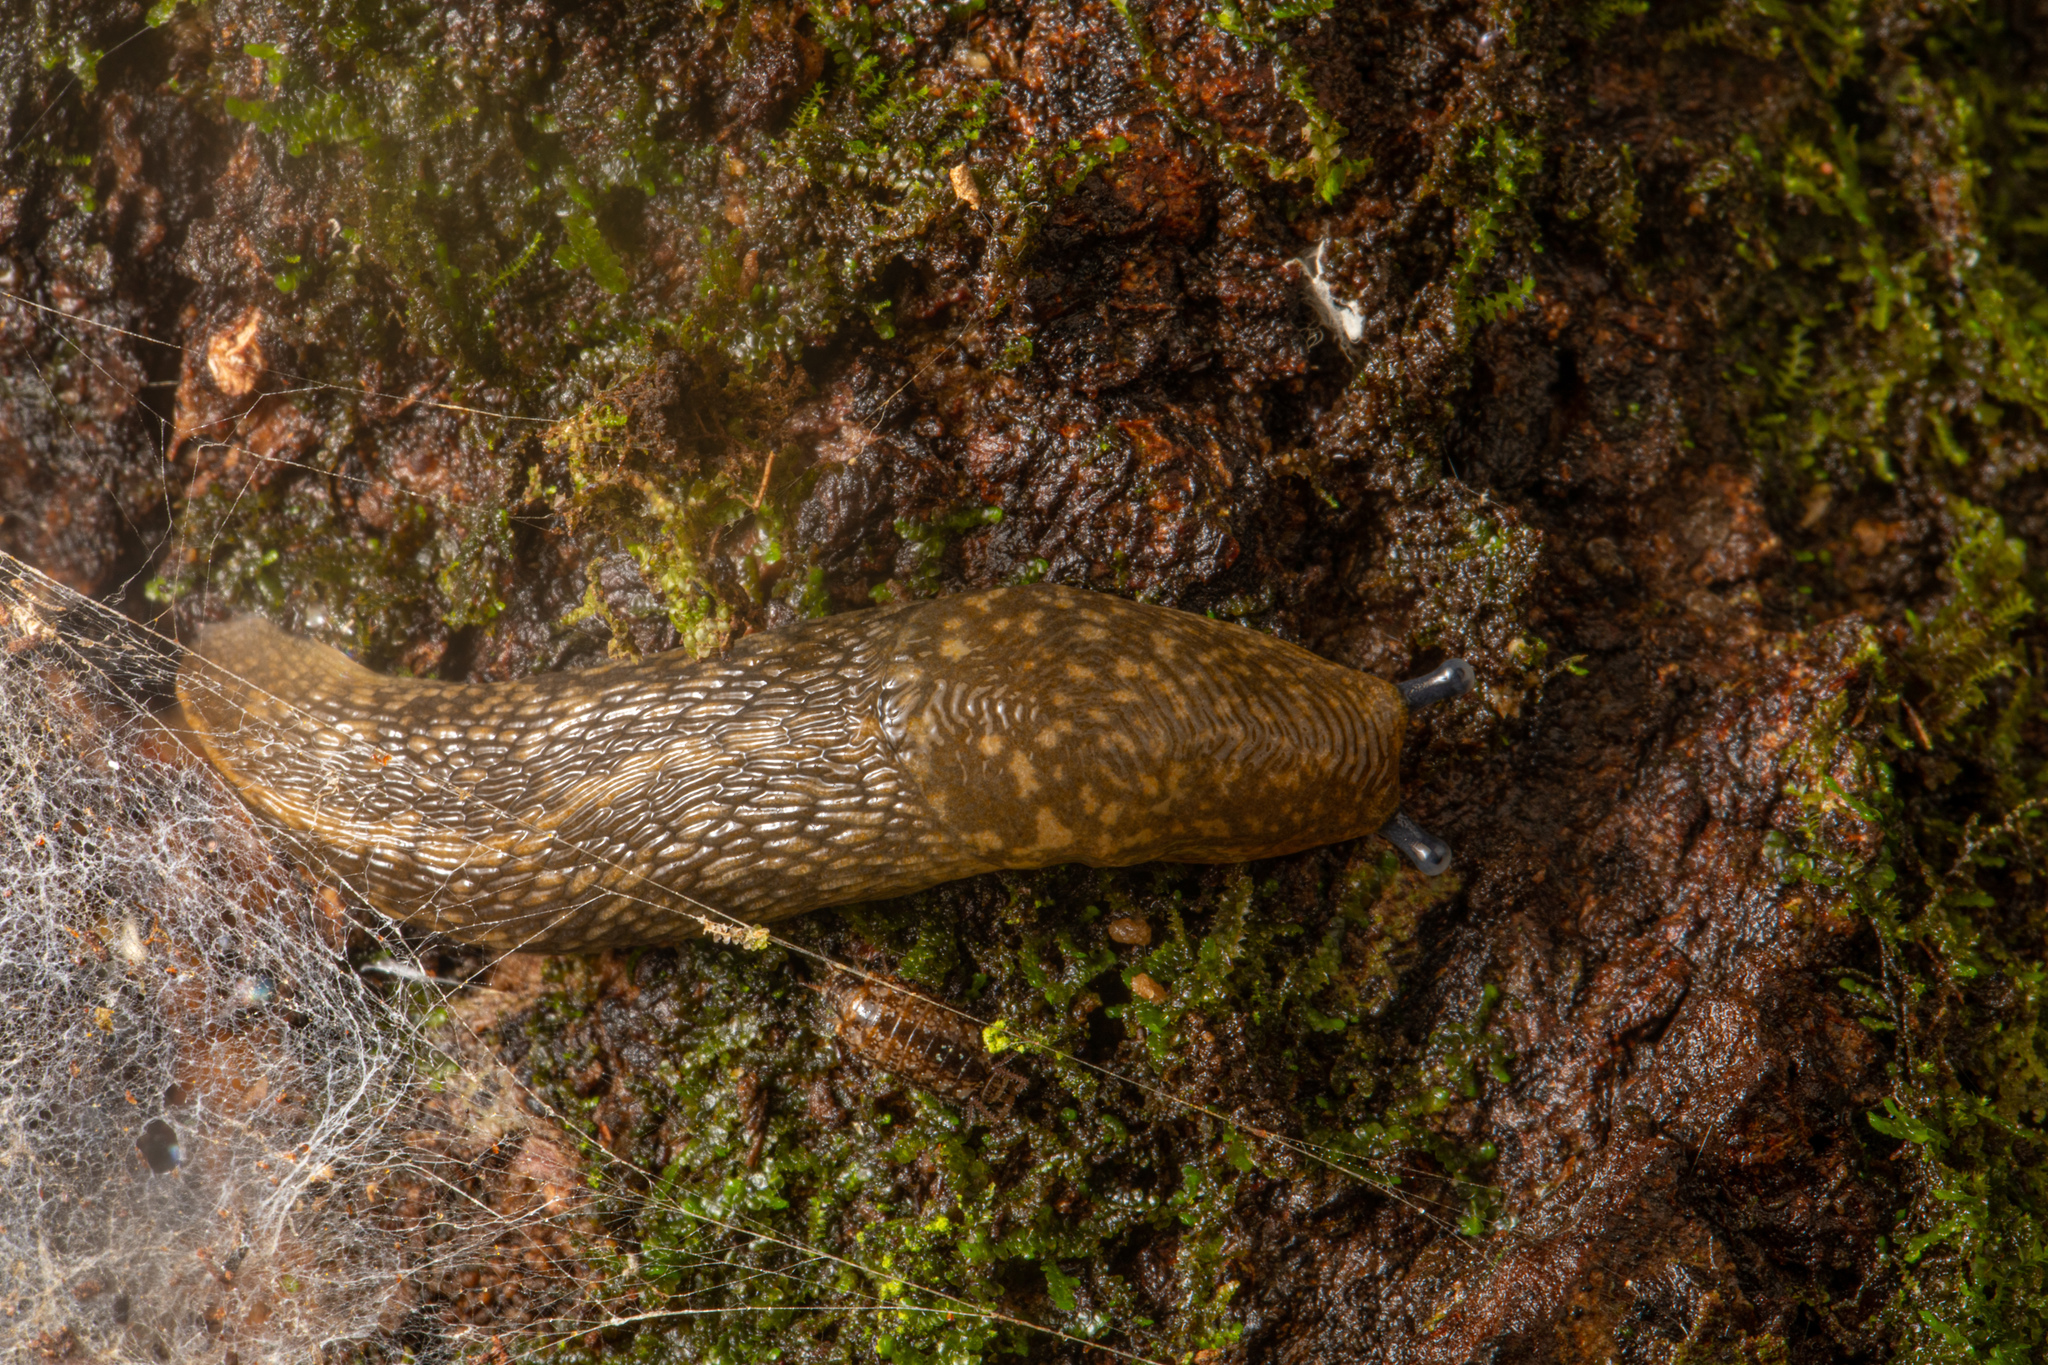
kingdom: Animalia
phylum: Mollusca
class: Gastropoda
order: Stylommatophora
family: Limacidae
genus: Limacus
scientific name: Limacus flavus
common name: Yellow gardenslug
